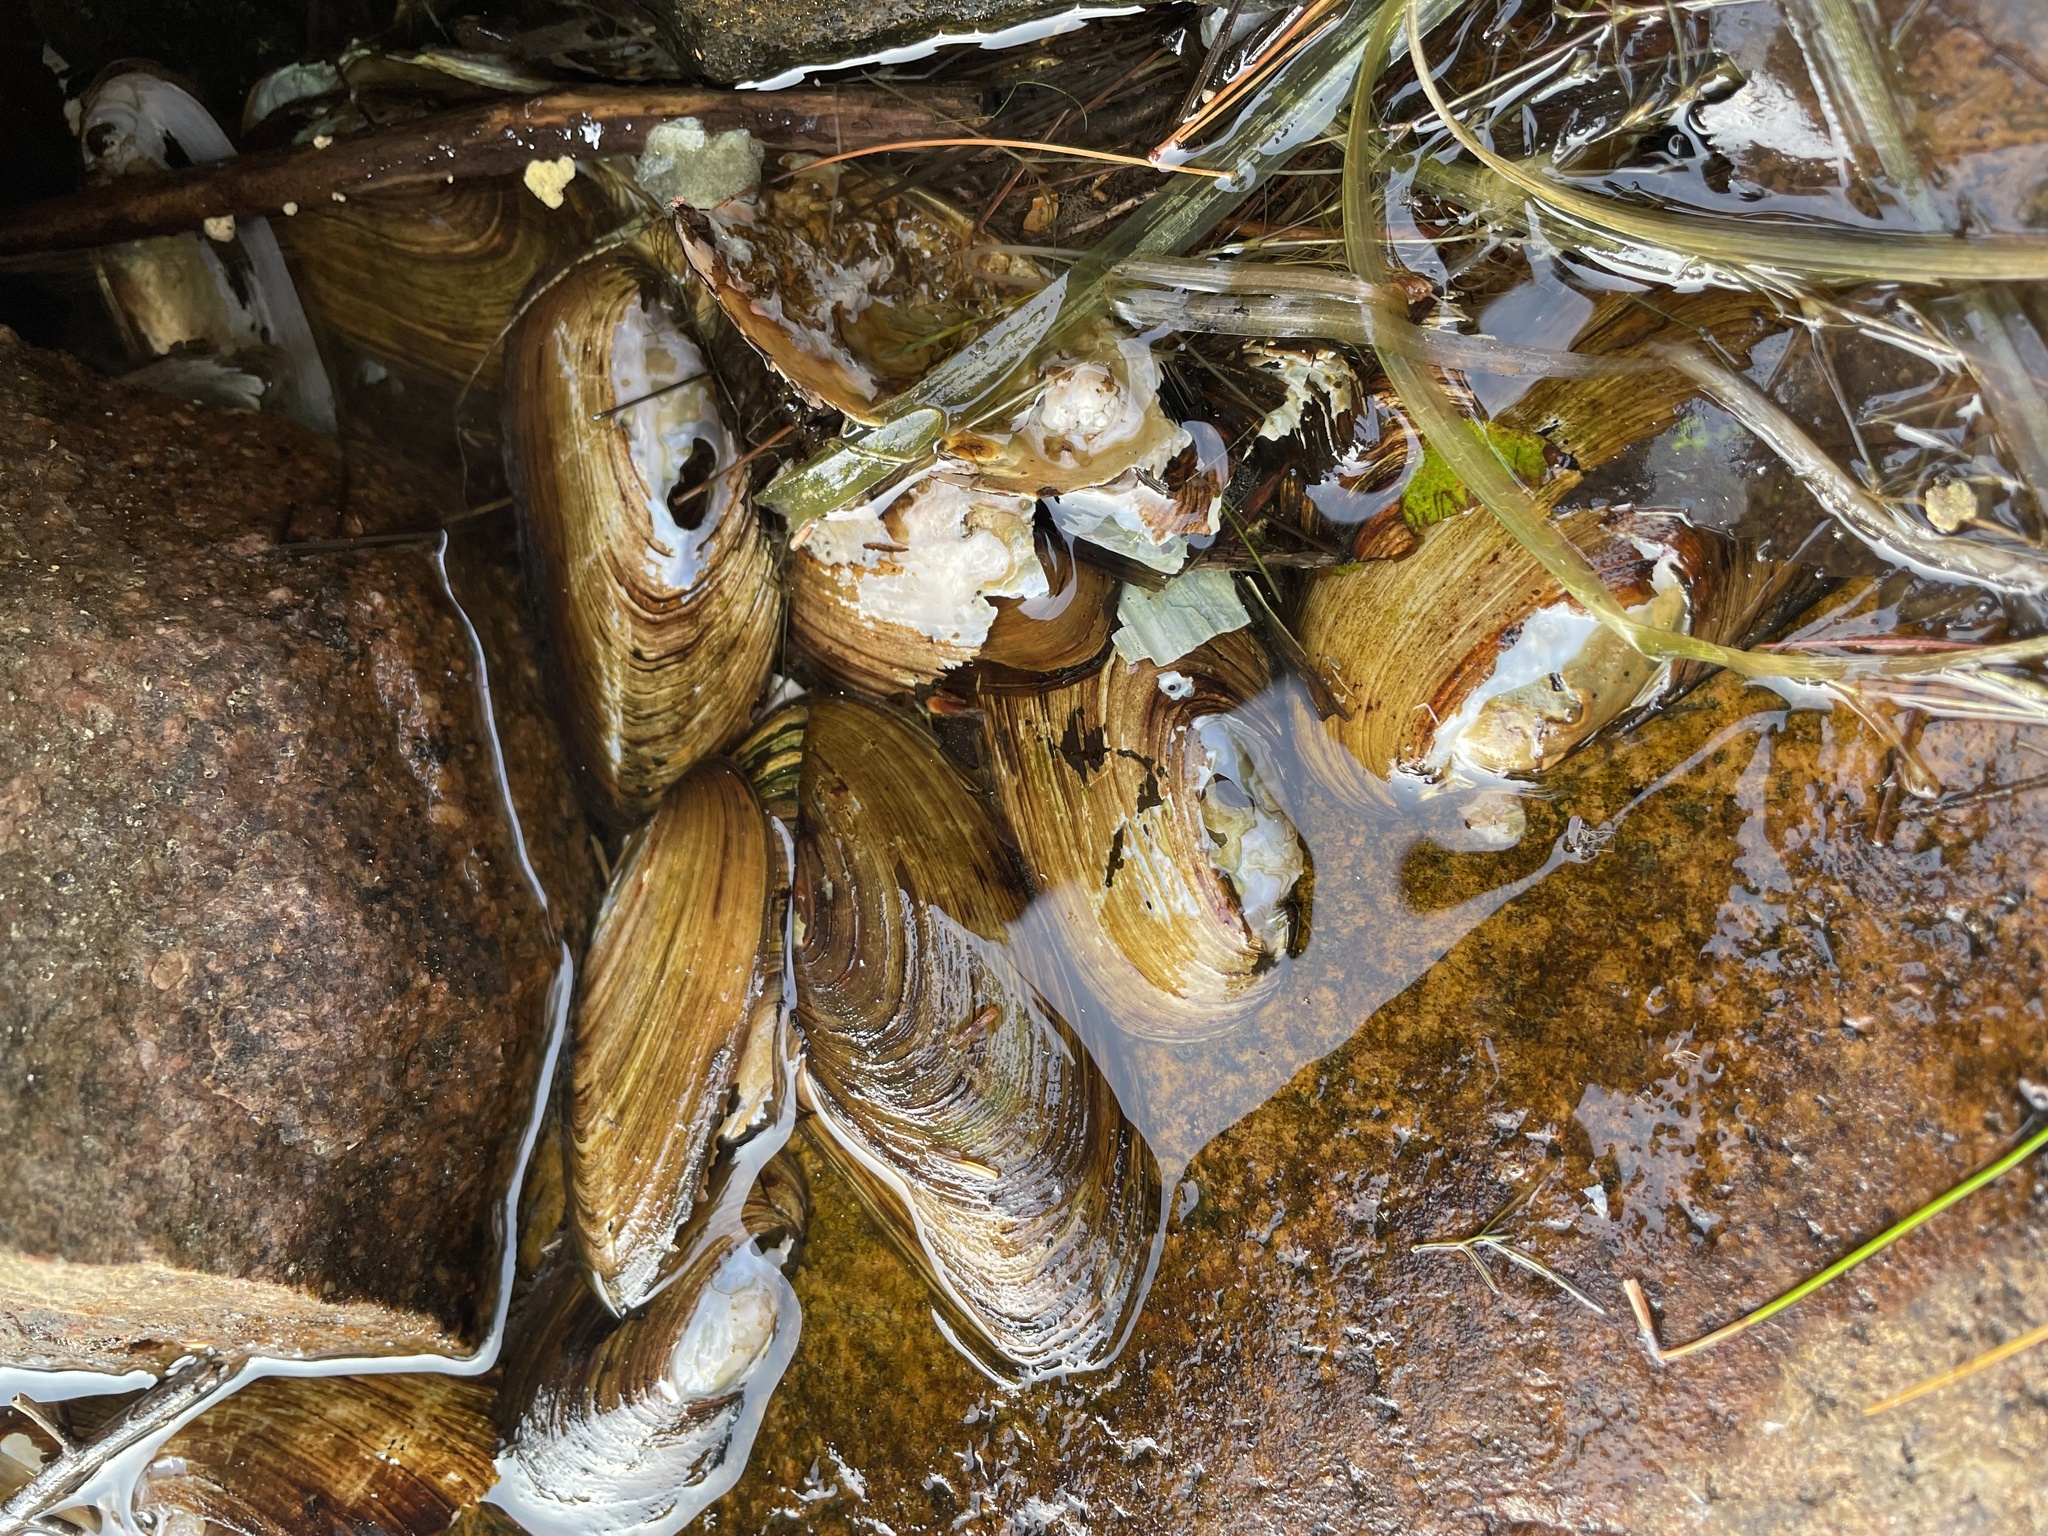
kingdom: Animalia
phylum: Mollusca
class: Bivalvia
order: Unionida
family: Unionidae
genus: Elliptio
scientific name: Elliptio complanata
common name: Eastern elliptio
